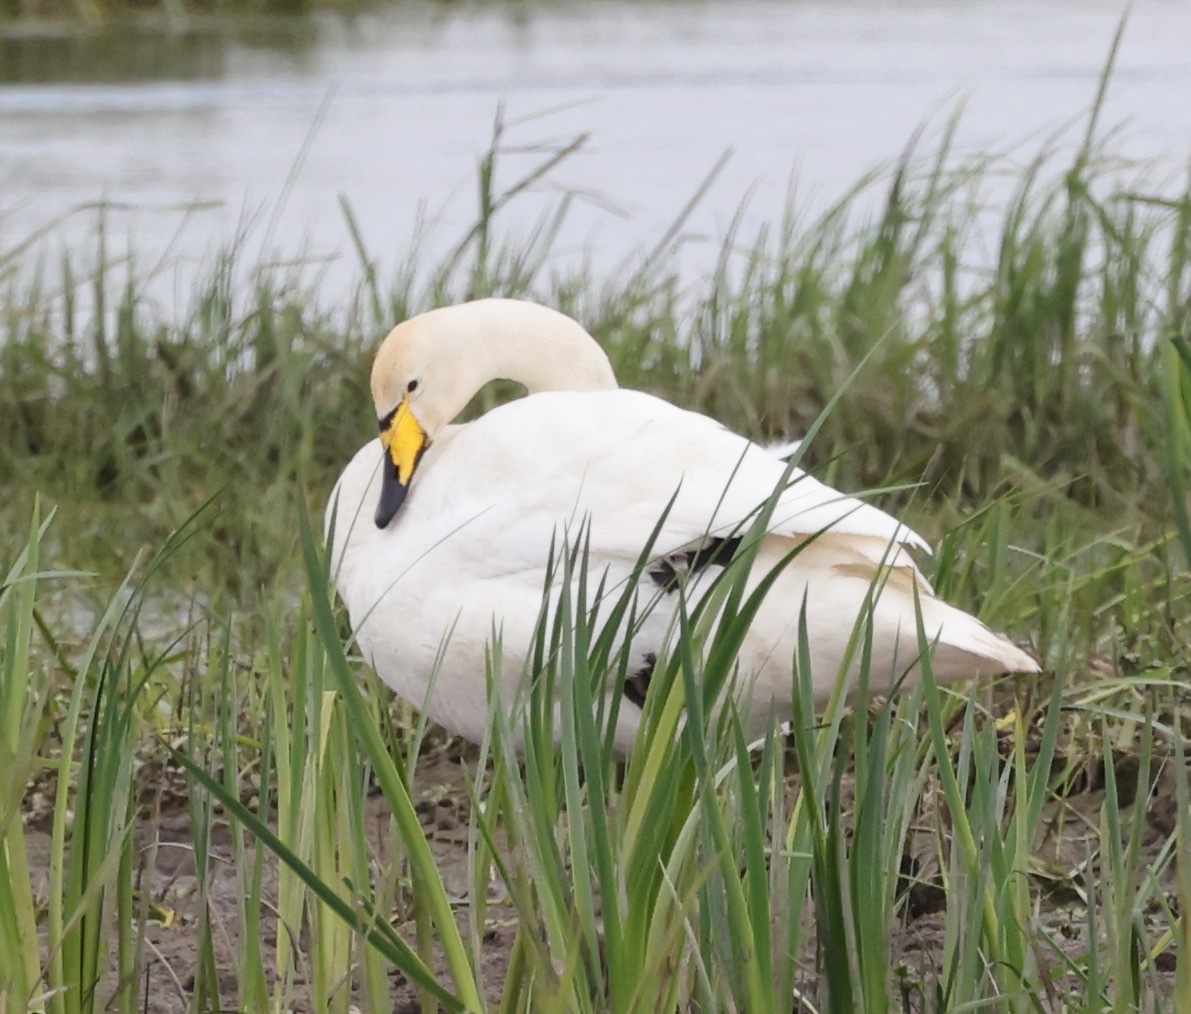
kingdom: Animalia
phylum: Chordata
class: Aves
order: Anseriformes
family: Anatidae
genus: Cygnus
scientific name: Cygnus cygnus
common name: Whooper swan
